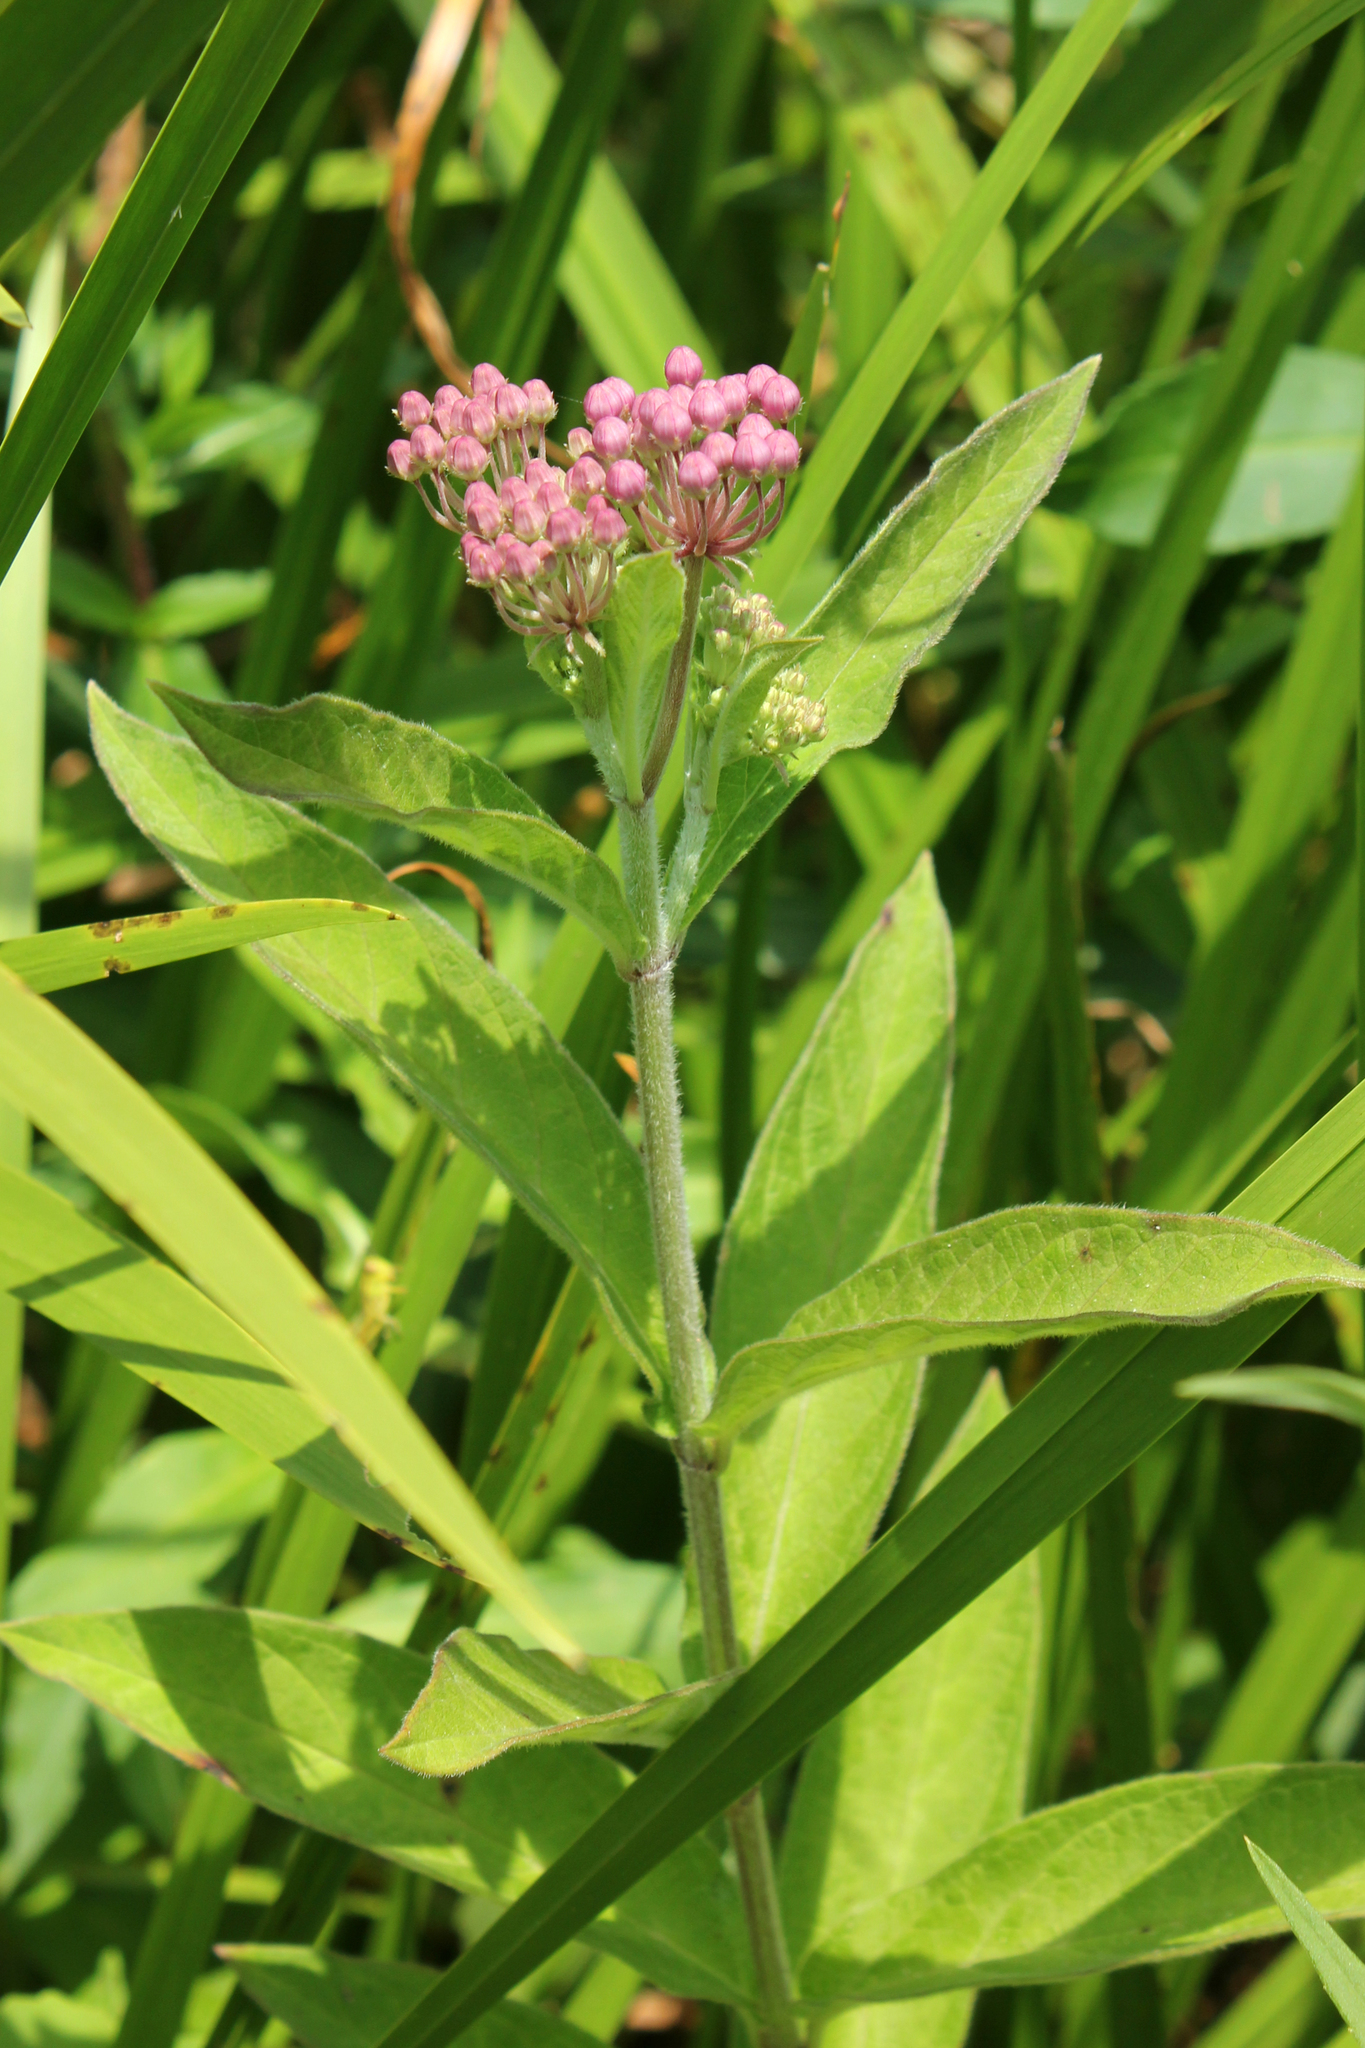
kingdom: Plantae
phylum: Tracheophyta
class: Magnoliopsida
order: Gentianales
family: Apocynaceae
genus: Asclepias
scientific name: Asclepias incarnata
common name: Swamp milkweed
